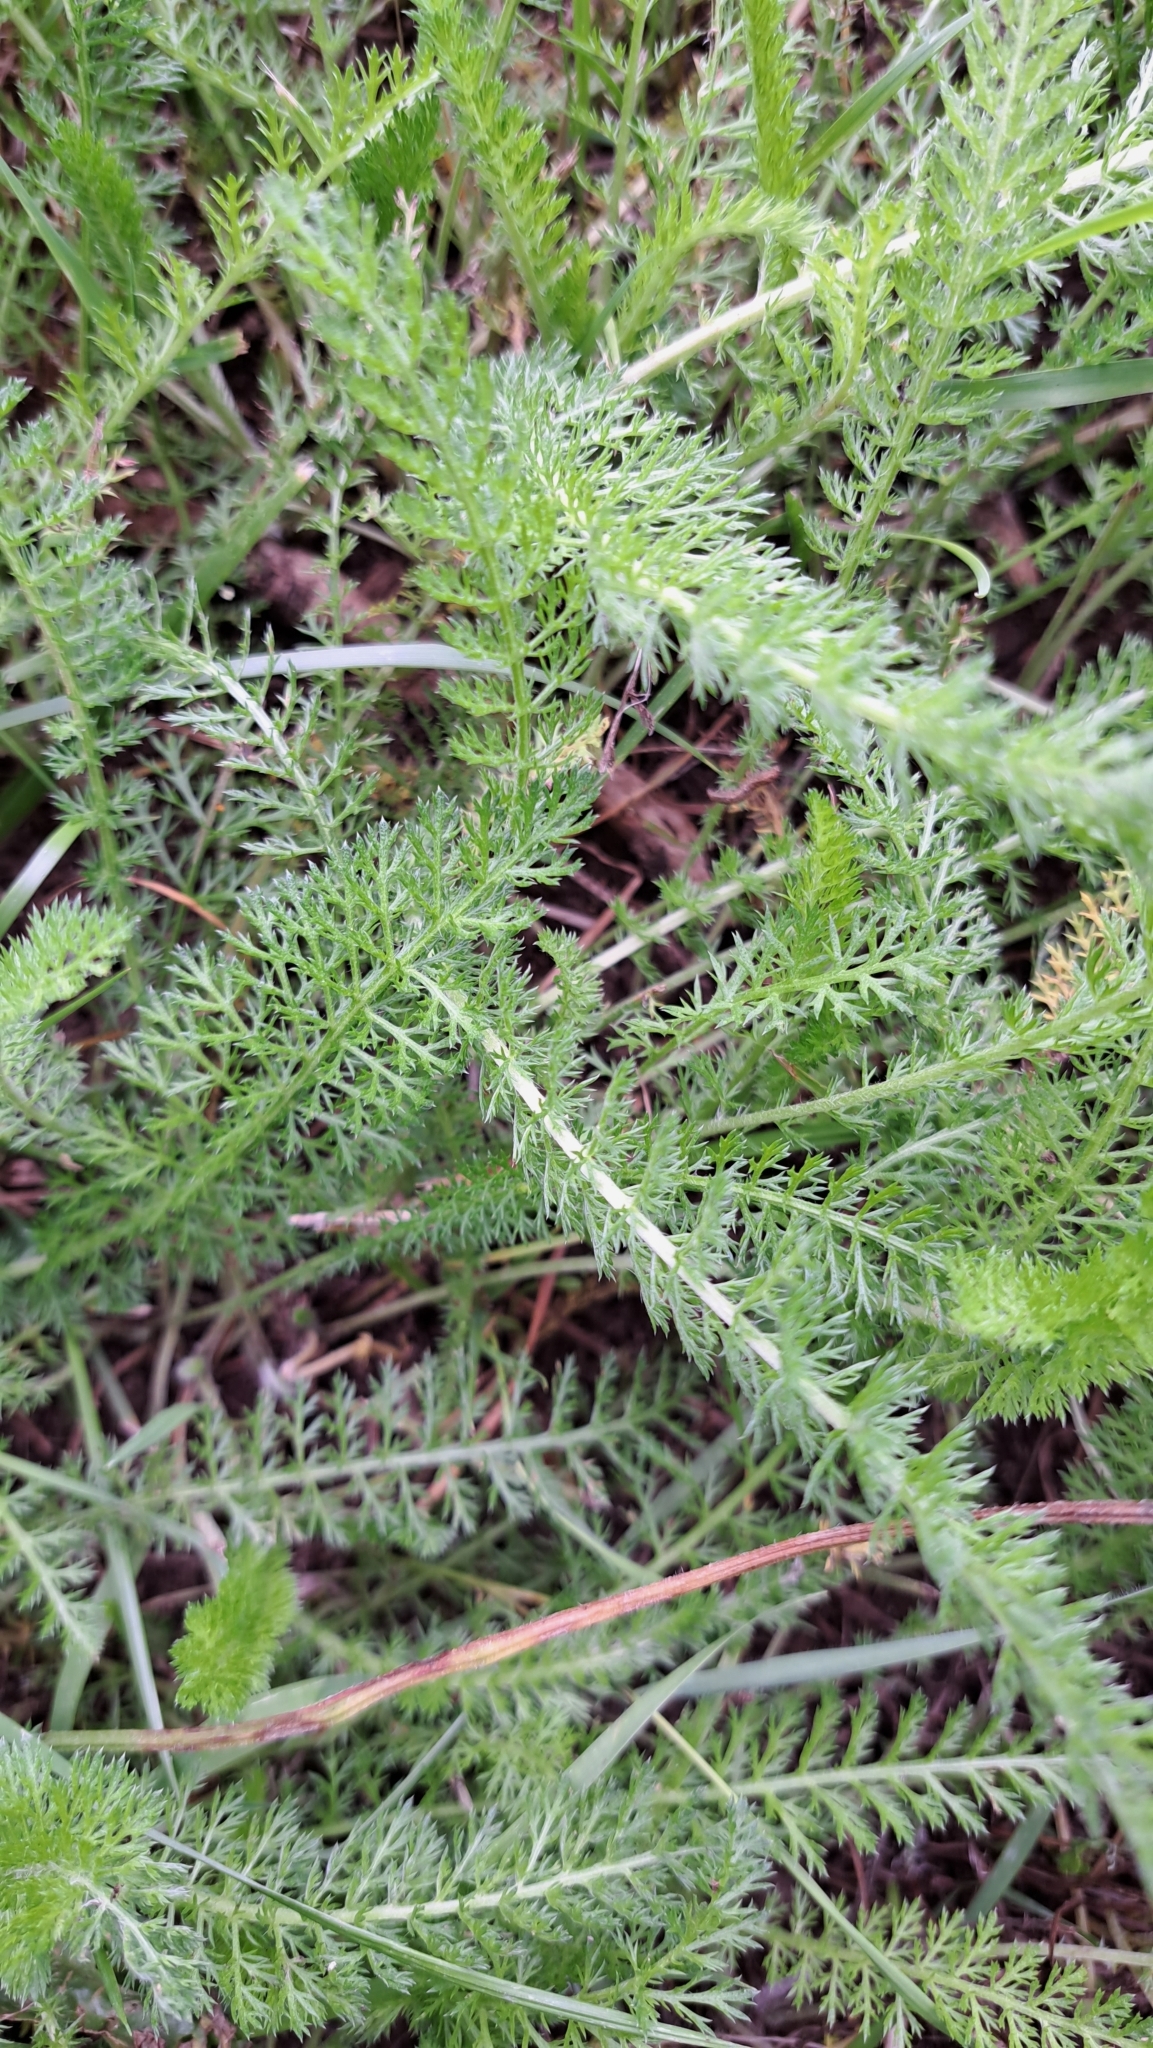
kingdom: Plantae
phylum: Tracheophyta
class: Magnoliopsida
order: Asterales
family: Asteraceae
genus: Achillea
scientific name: Achillea millefolium
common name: Yarrow
